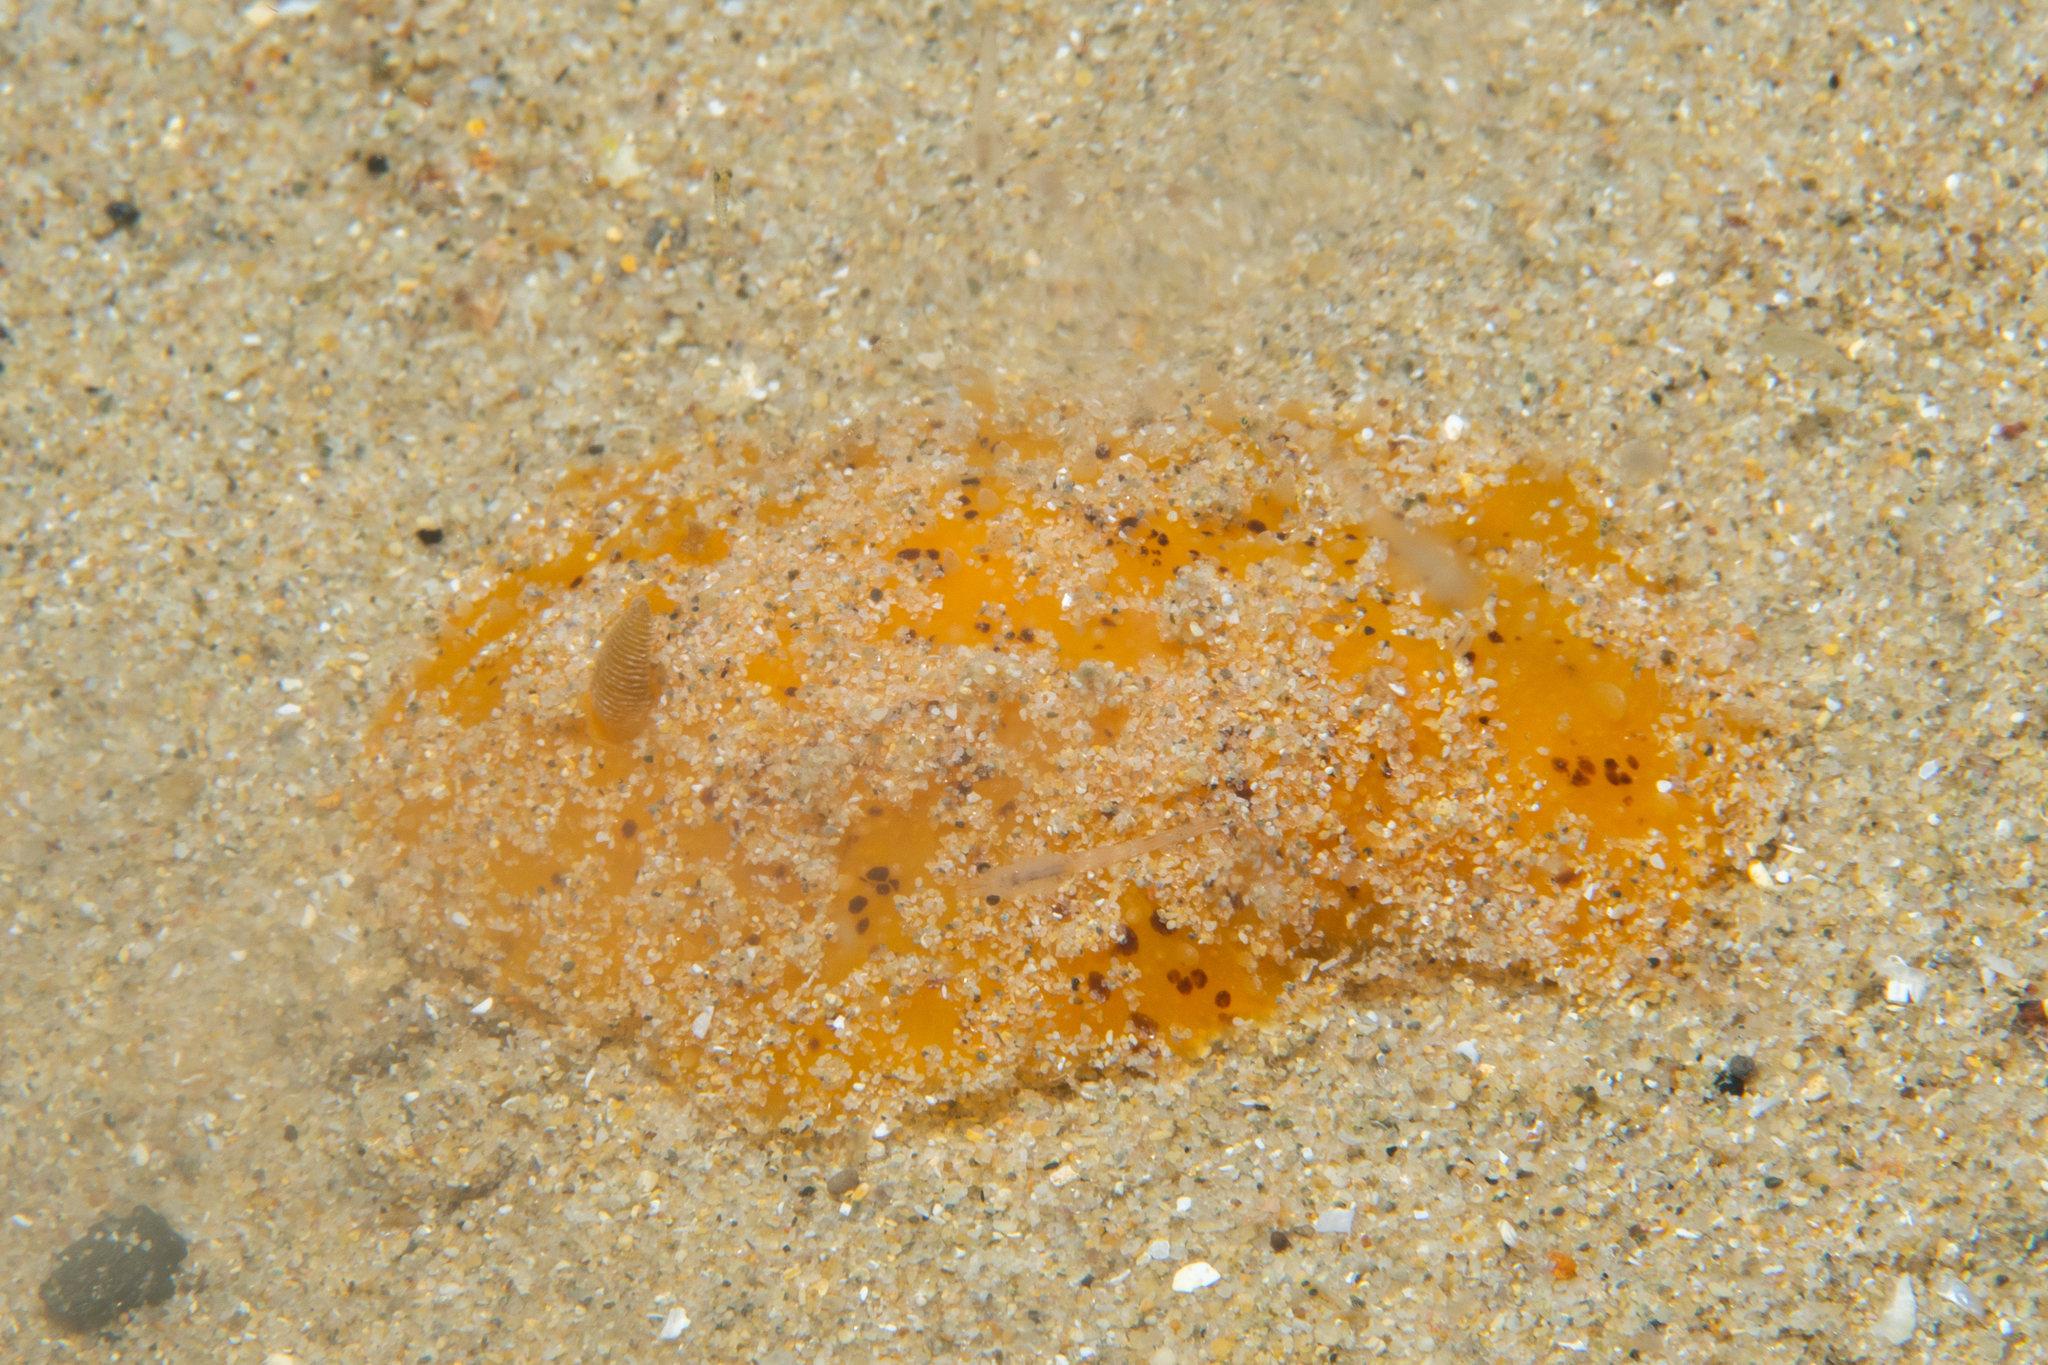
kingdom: Animalia
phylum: Mollusca
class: Gastropoda
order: Nudibranchia
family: Discodorididae
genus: Thordisa
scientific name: Thordisa verrucosa
